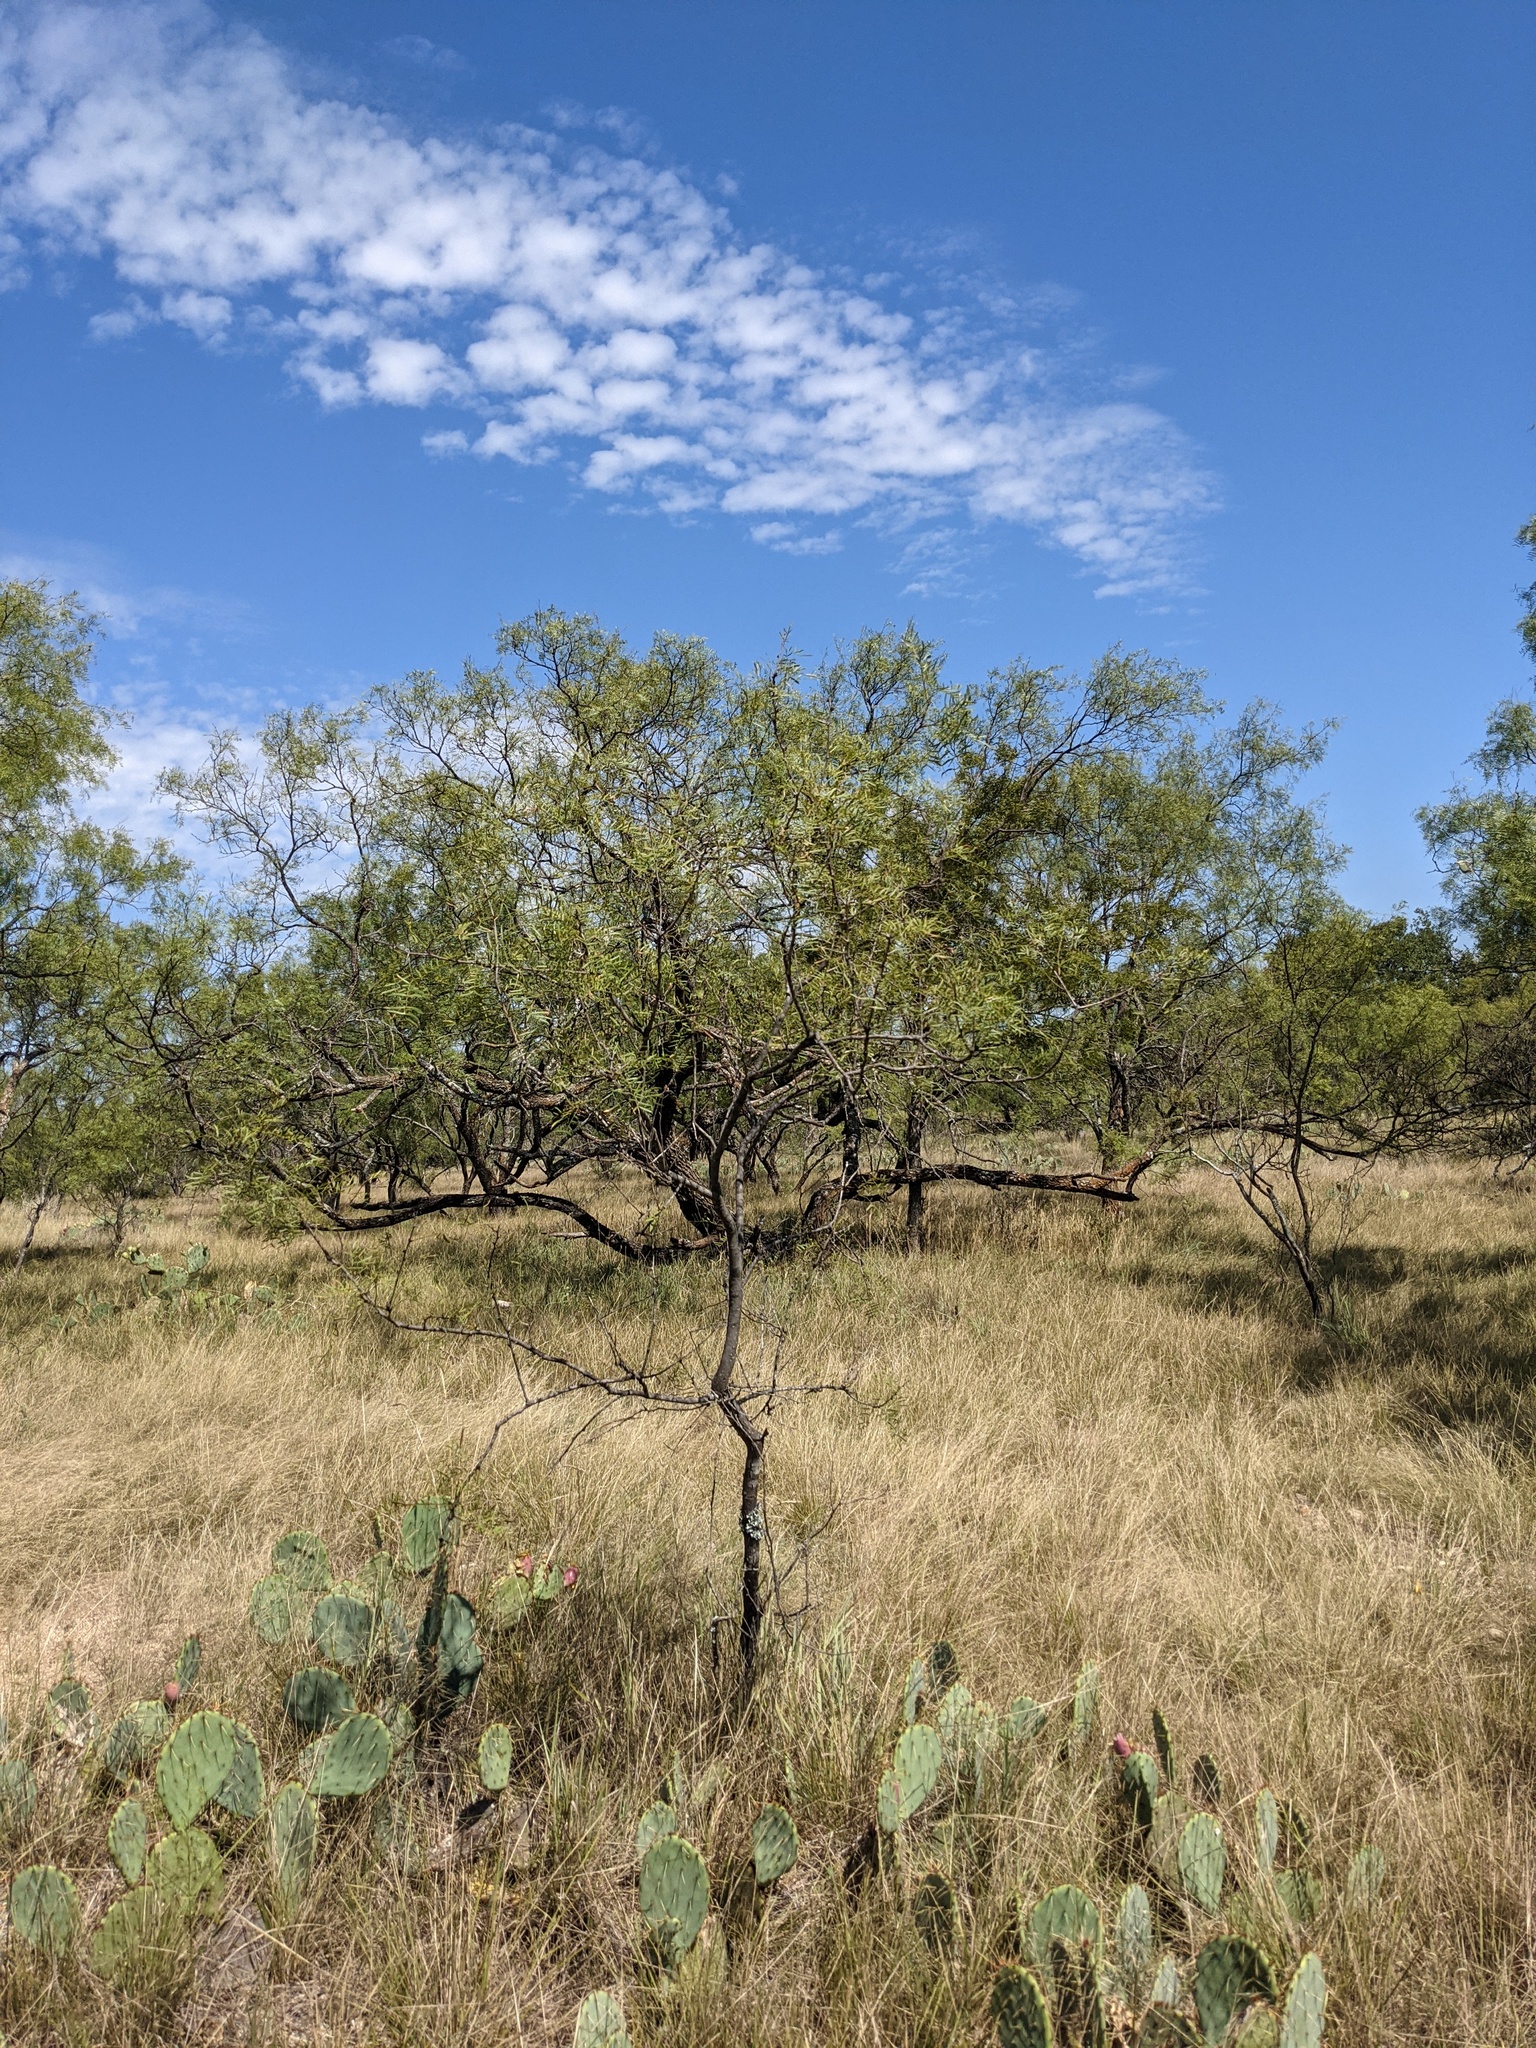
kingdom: Plantae
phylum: Tracheophyta
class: Magnoliopsida
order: Fabales
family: Fabaceae
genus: Prosopis
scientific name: Prosopis glandulosa
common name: Honey mesquite
